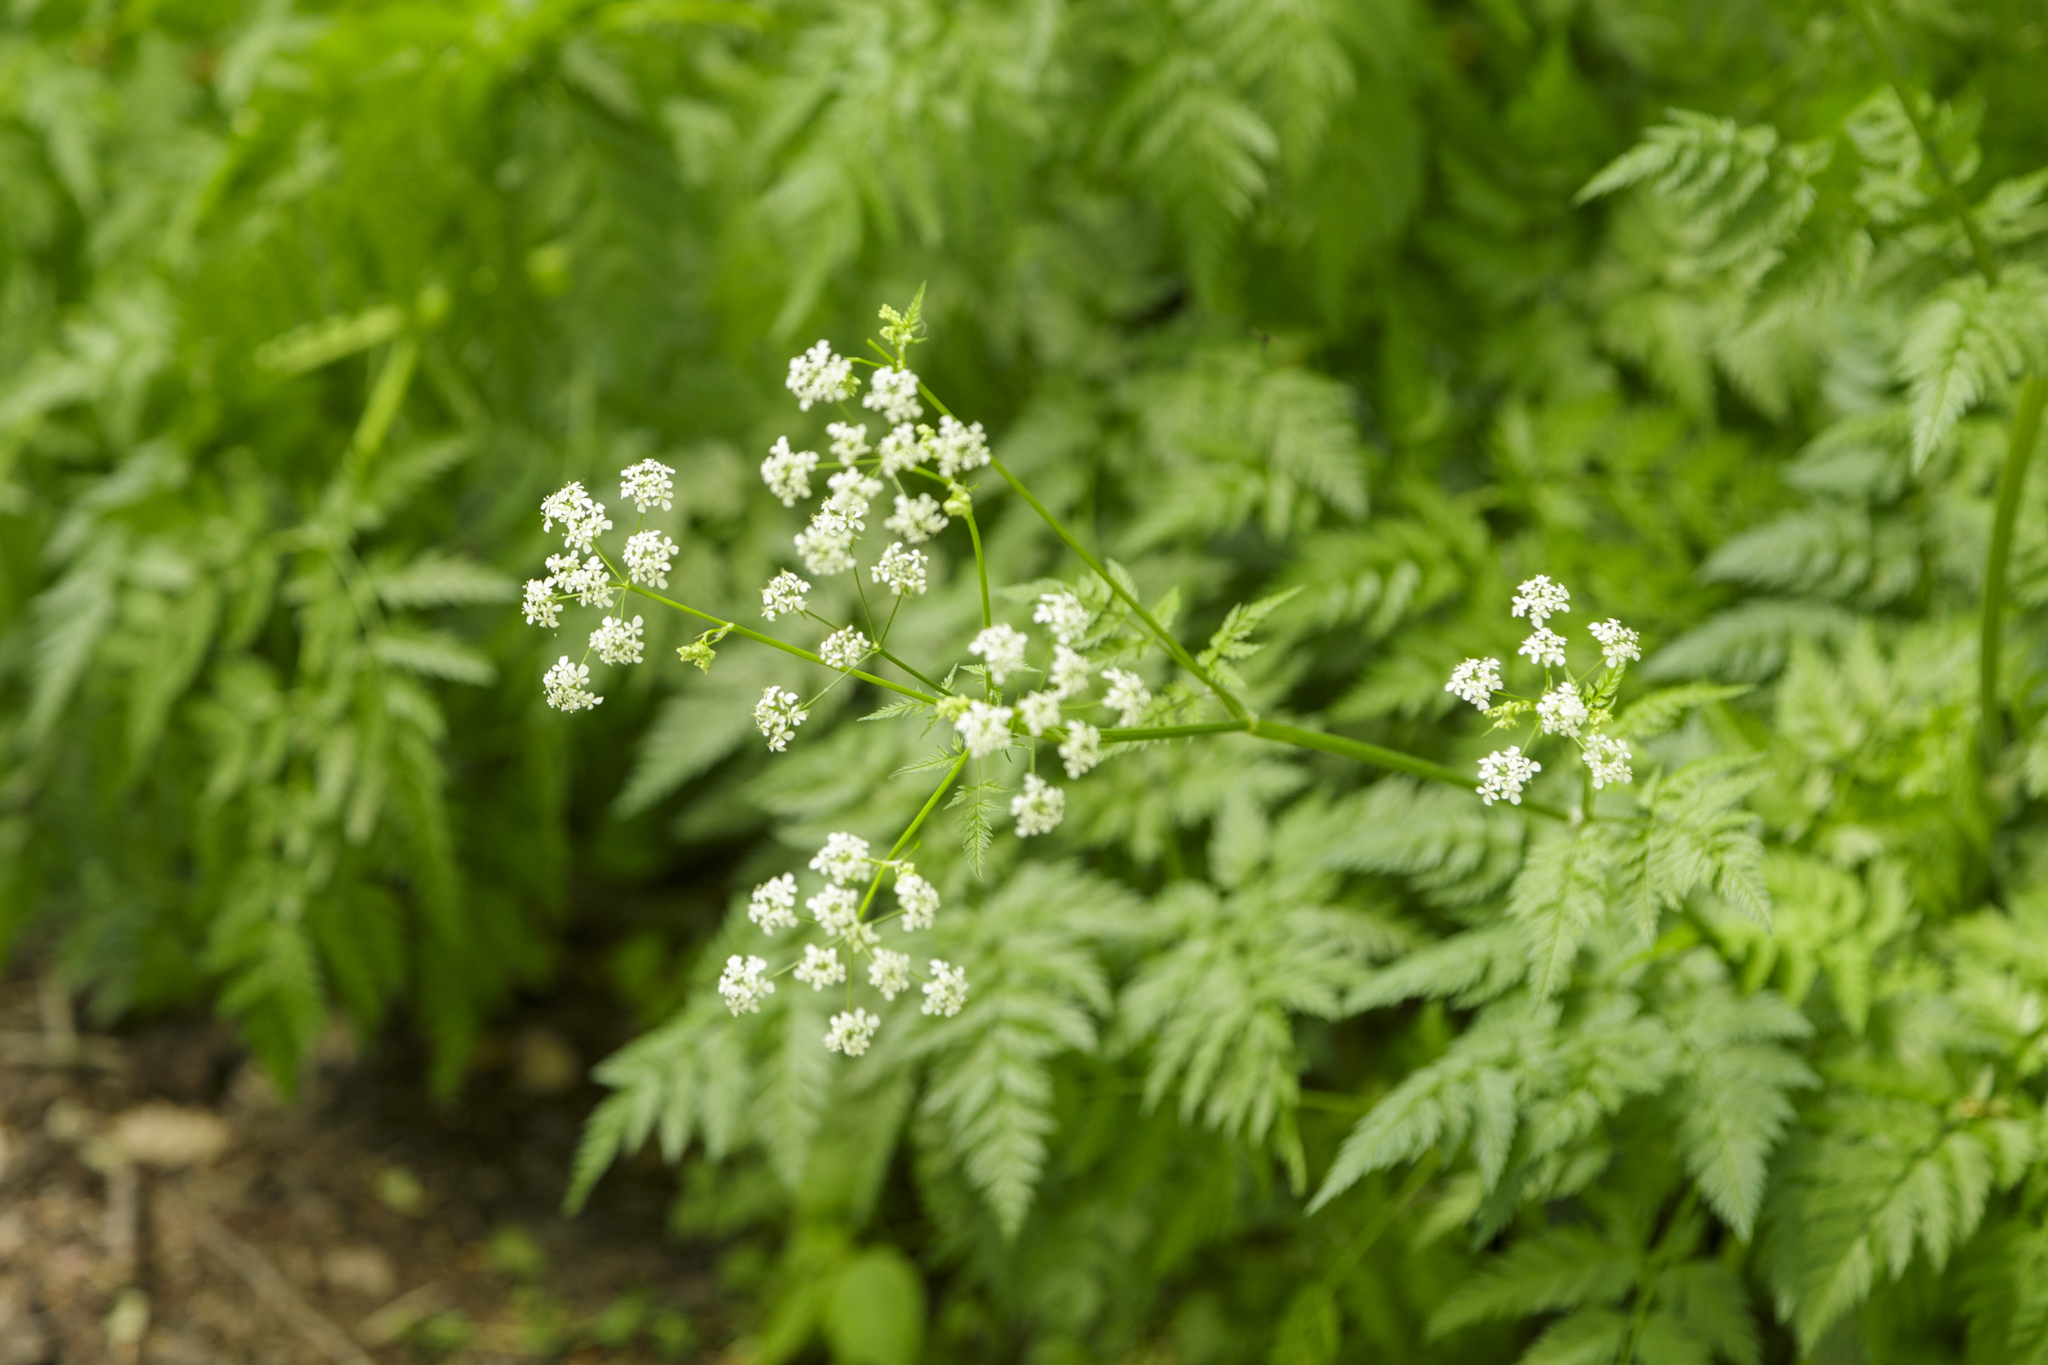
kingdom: Plantae
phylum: Tracheophyta
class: Magnoliopsida
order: Apiales
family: Apiaceae
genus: Anthriscus
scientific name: Anthriscus sylvestris
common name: Cow parsley
